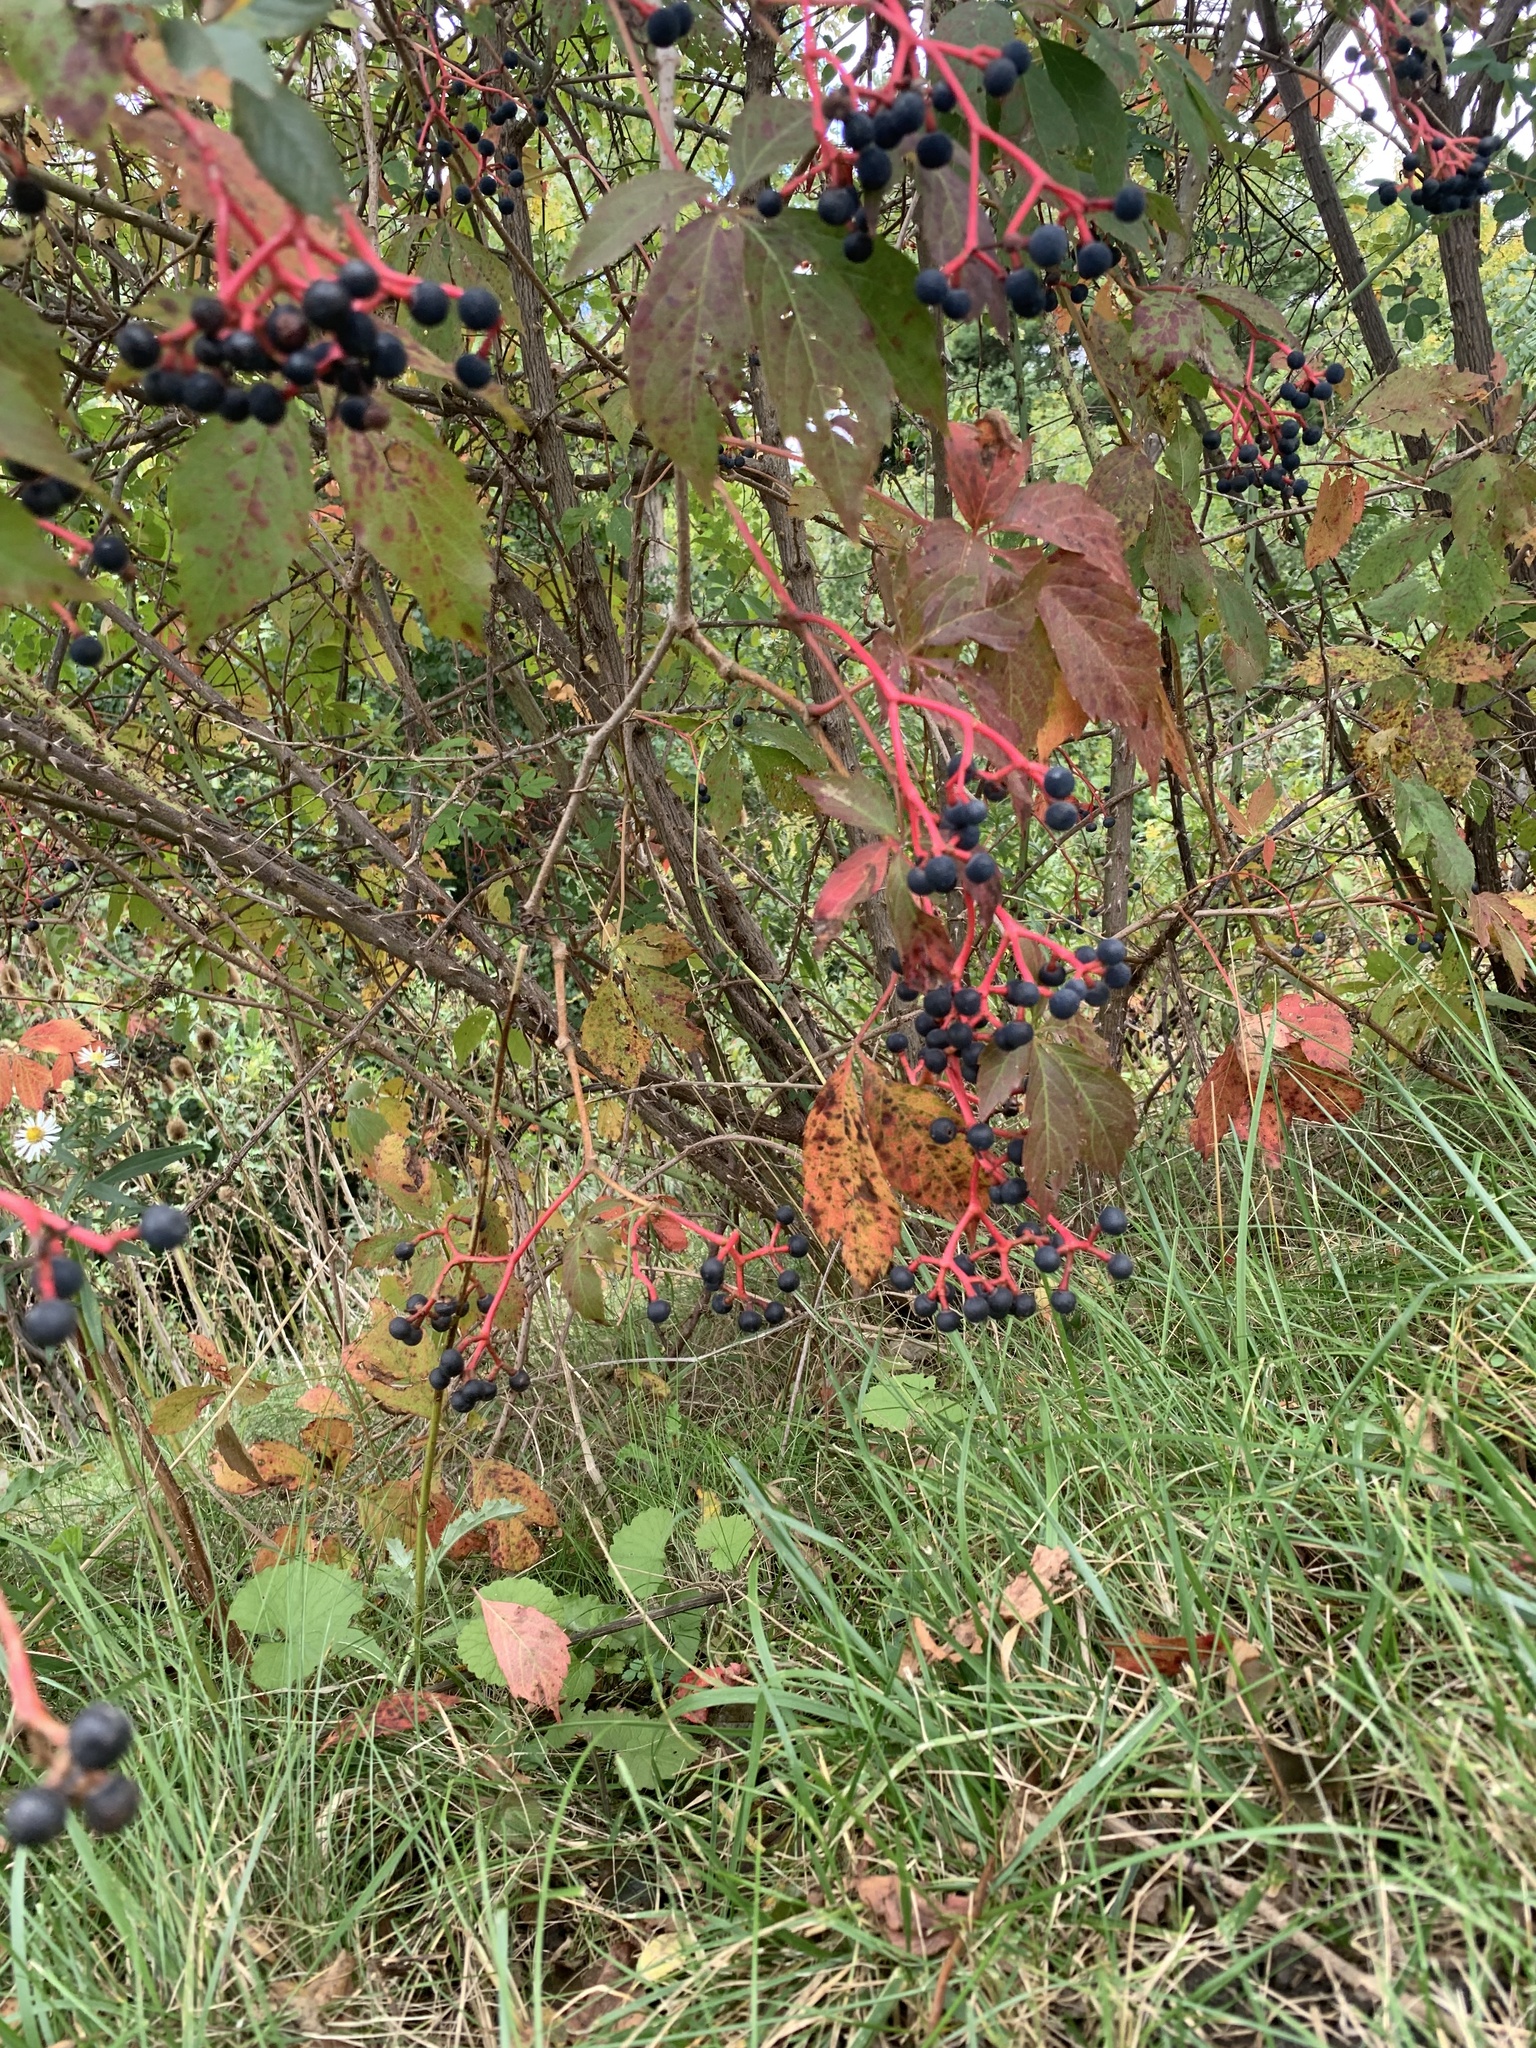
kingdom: Plantae
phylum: Tracheophyta
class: Magnoliopsida
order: Vitales
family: Vitaceae
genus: Parthenocissus
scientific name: Parthenocissus quinquefolia
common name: Virginia-creeper
